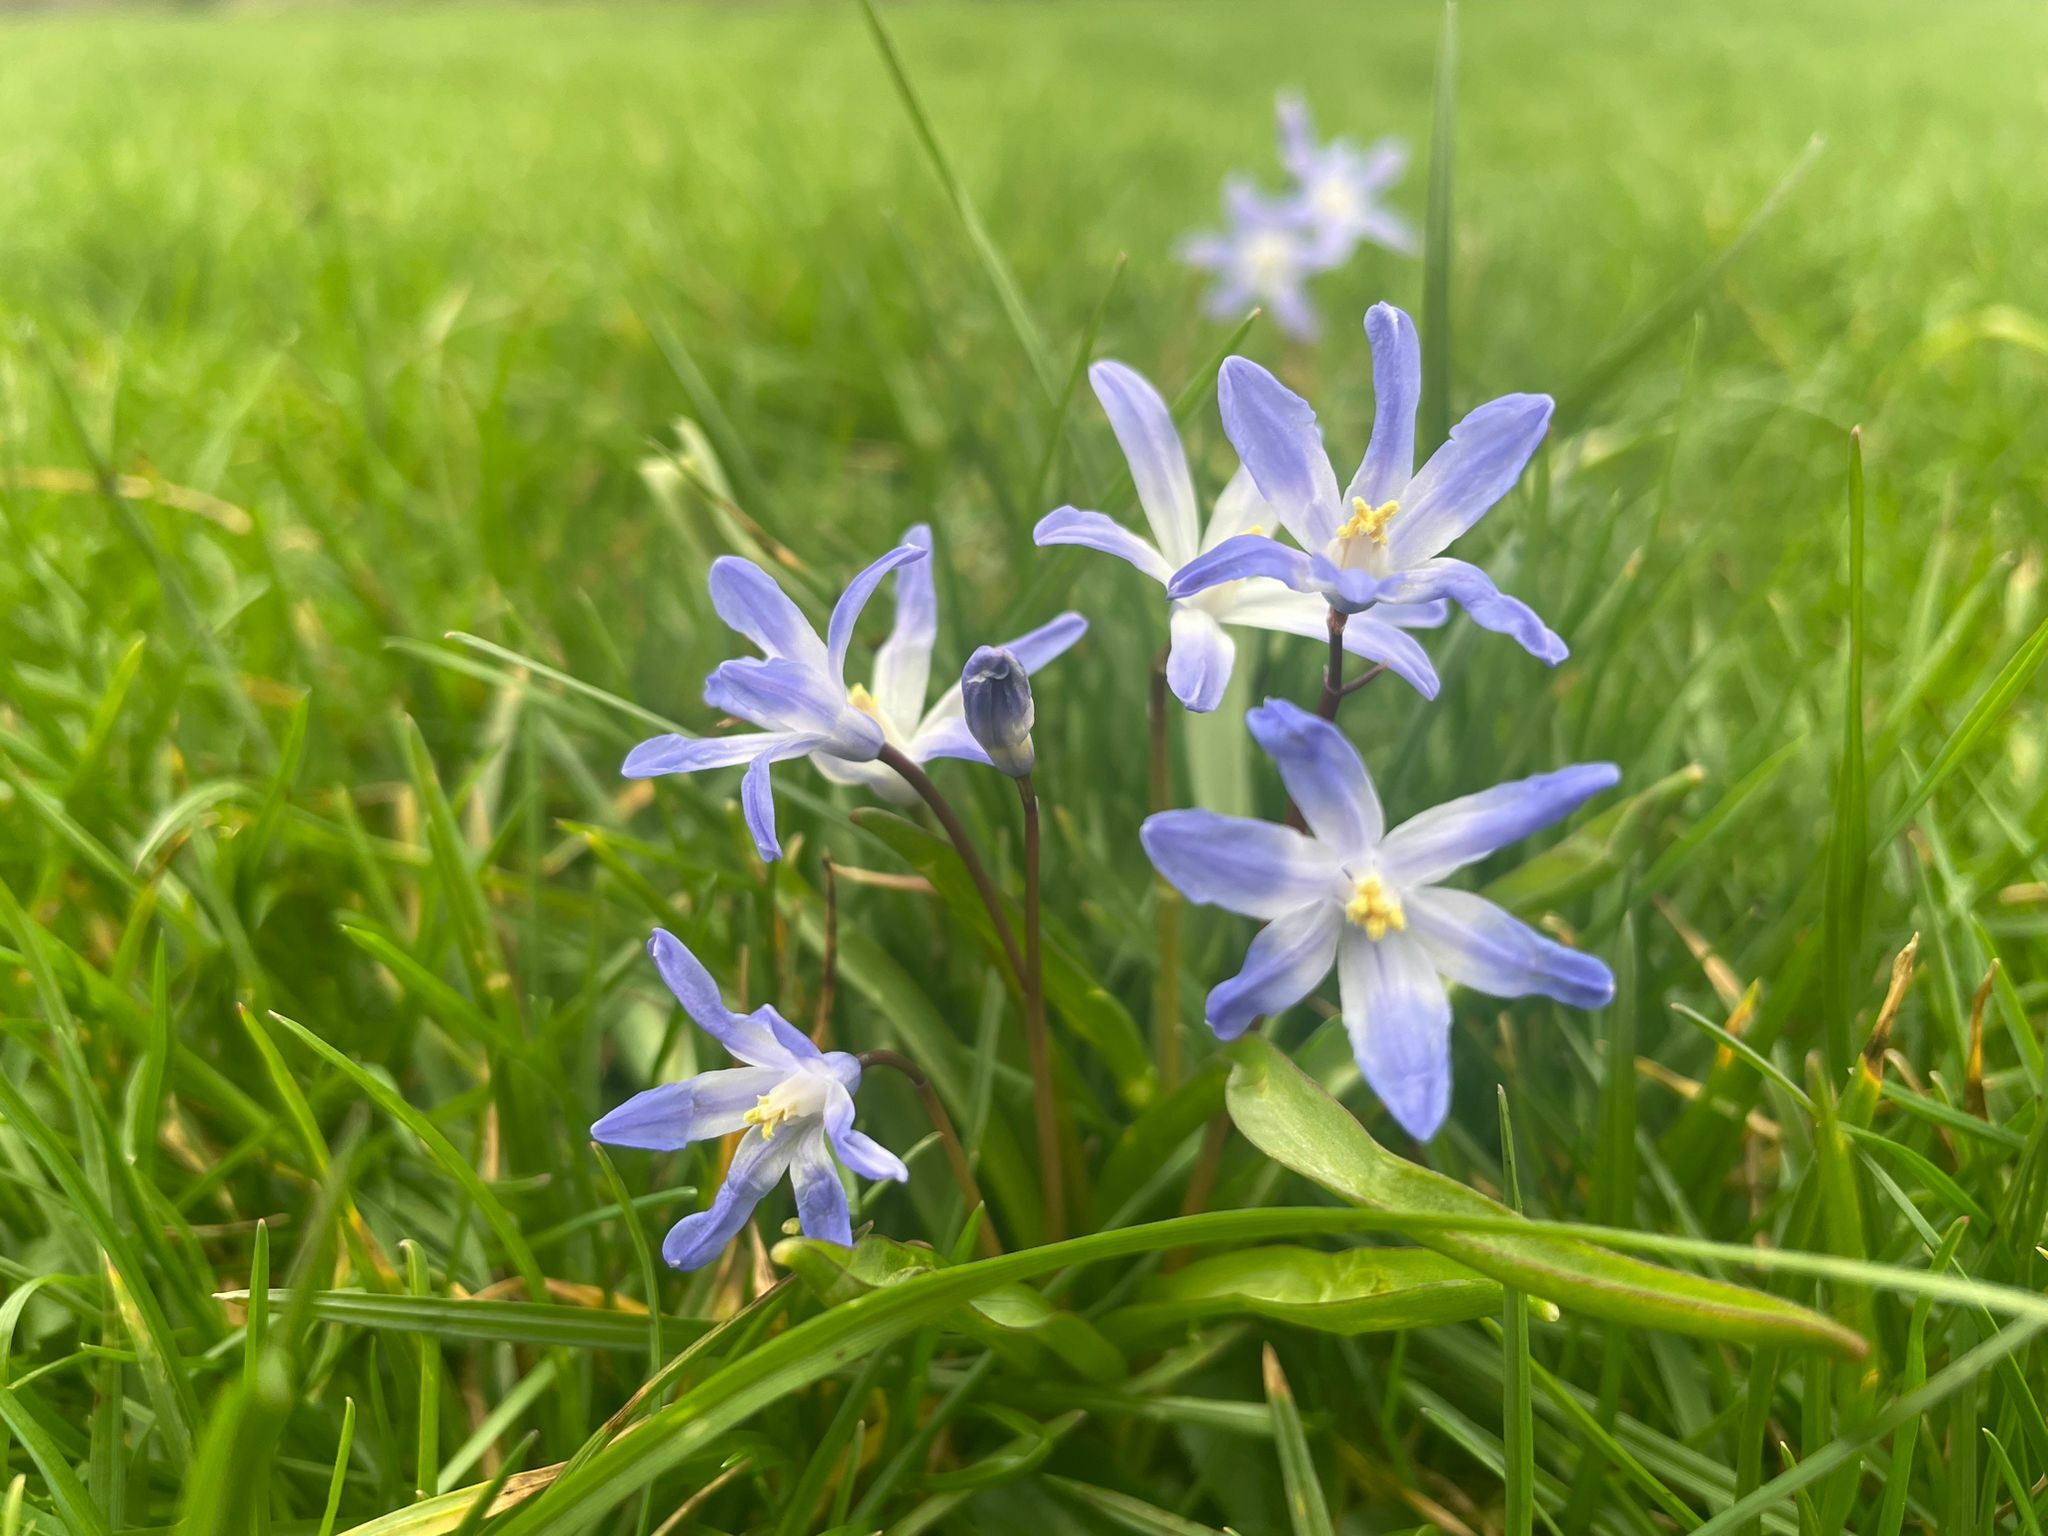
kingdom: Plantae
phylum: Tracheophyta
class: Liliopsida
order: Asparagales
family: Asparagaceae
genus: Scilla
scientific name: Scilla forbesii
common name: Glory-of-the-snow
